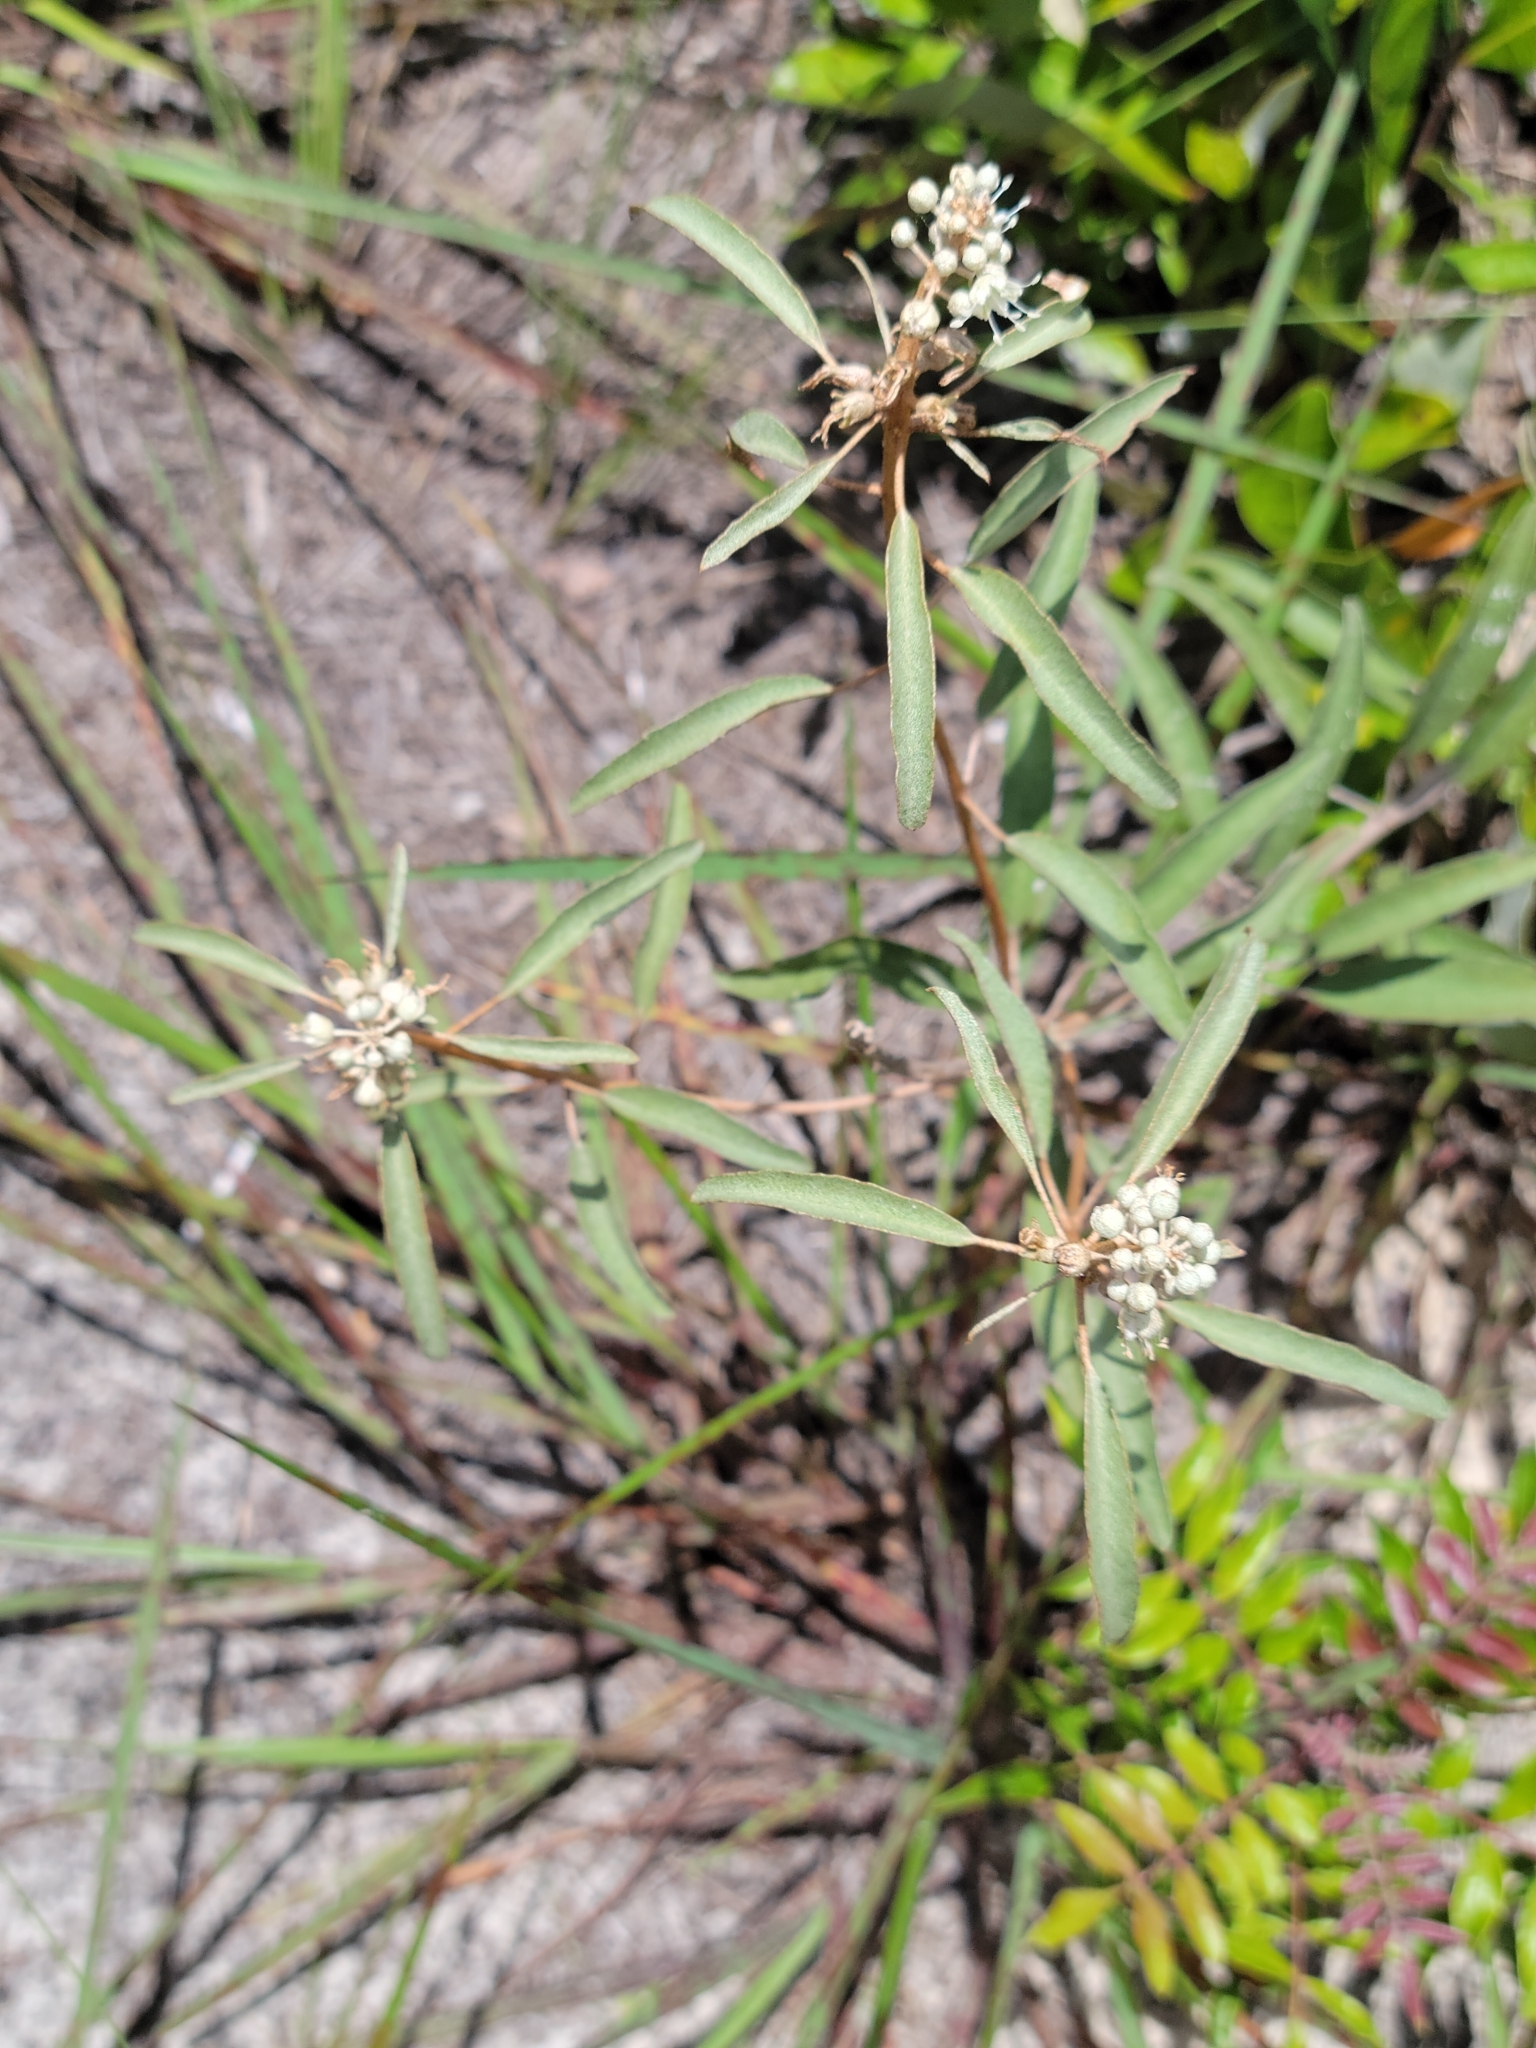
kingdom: Plantae
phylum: Tracheophyta
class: Magnoliopsida
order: Malpighiales
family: Euphorbiaceae
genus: Croton
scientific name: Croton argyranthemus
